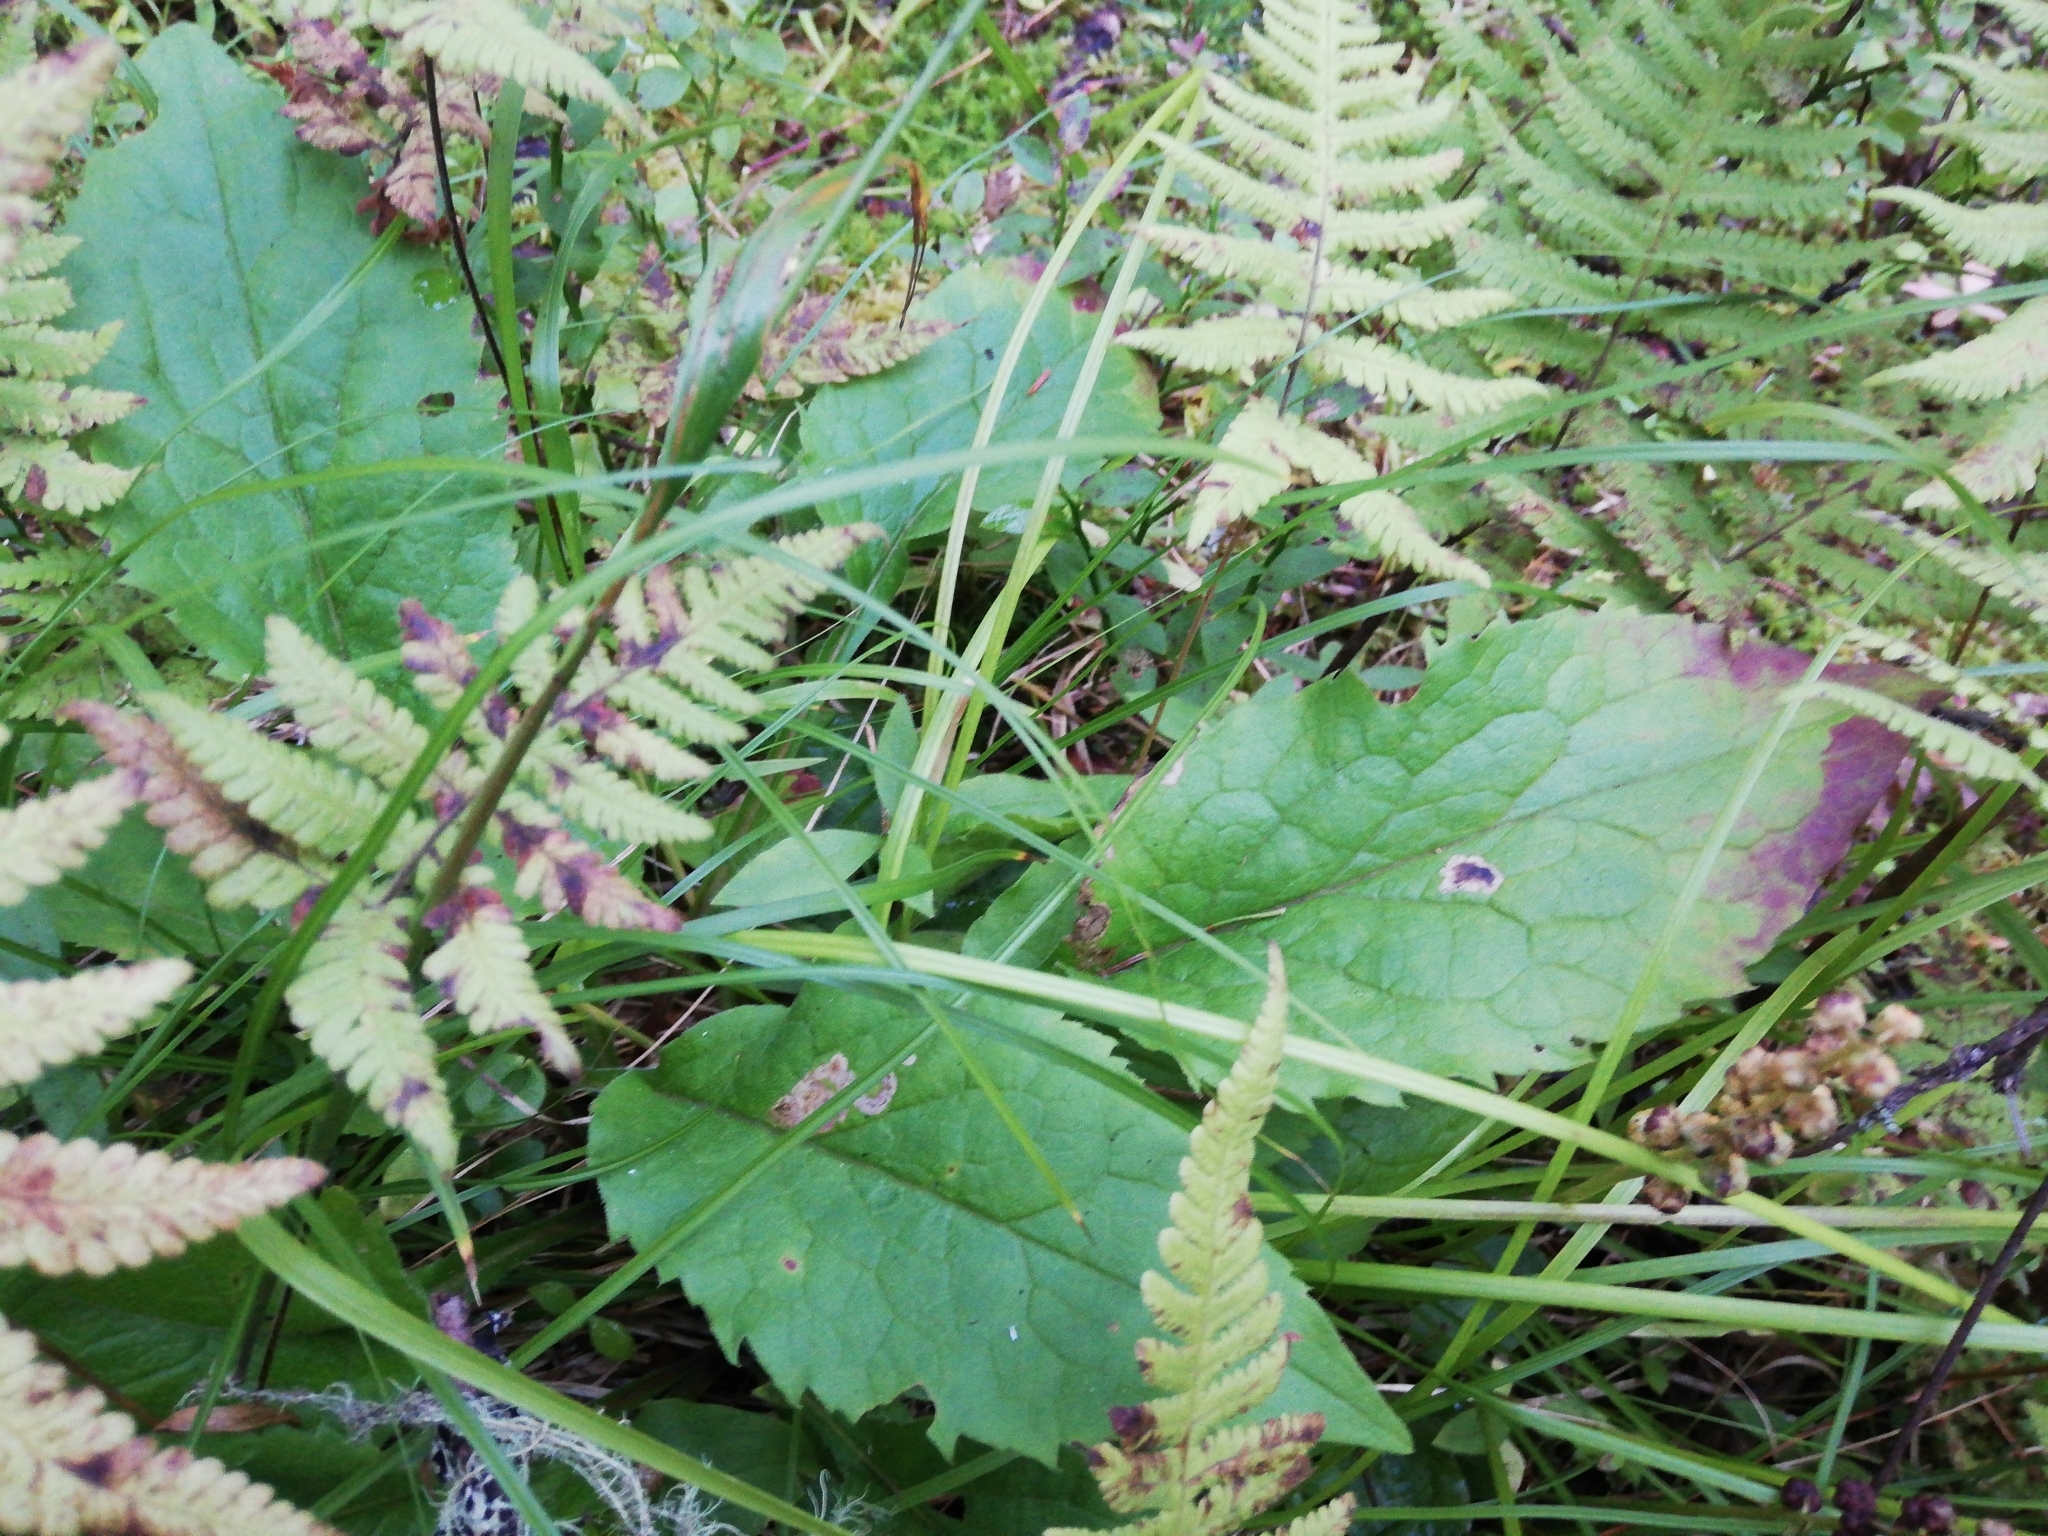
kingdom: Plantae
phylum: Tracheophyta
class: Polypodiopsida
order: Polypodiales
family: Thelypteridaceae
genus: Phegopteris
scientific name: Phegopteris connectilis
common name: Beech fern
